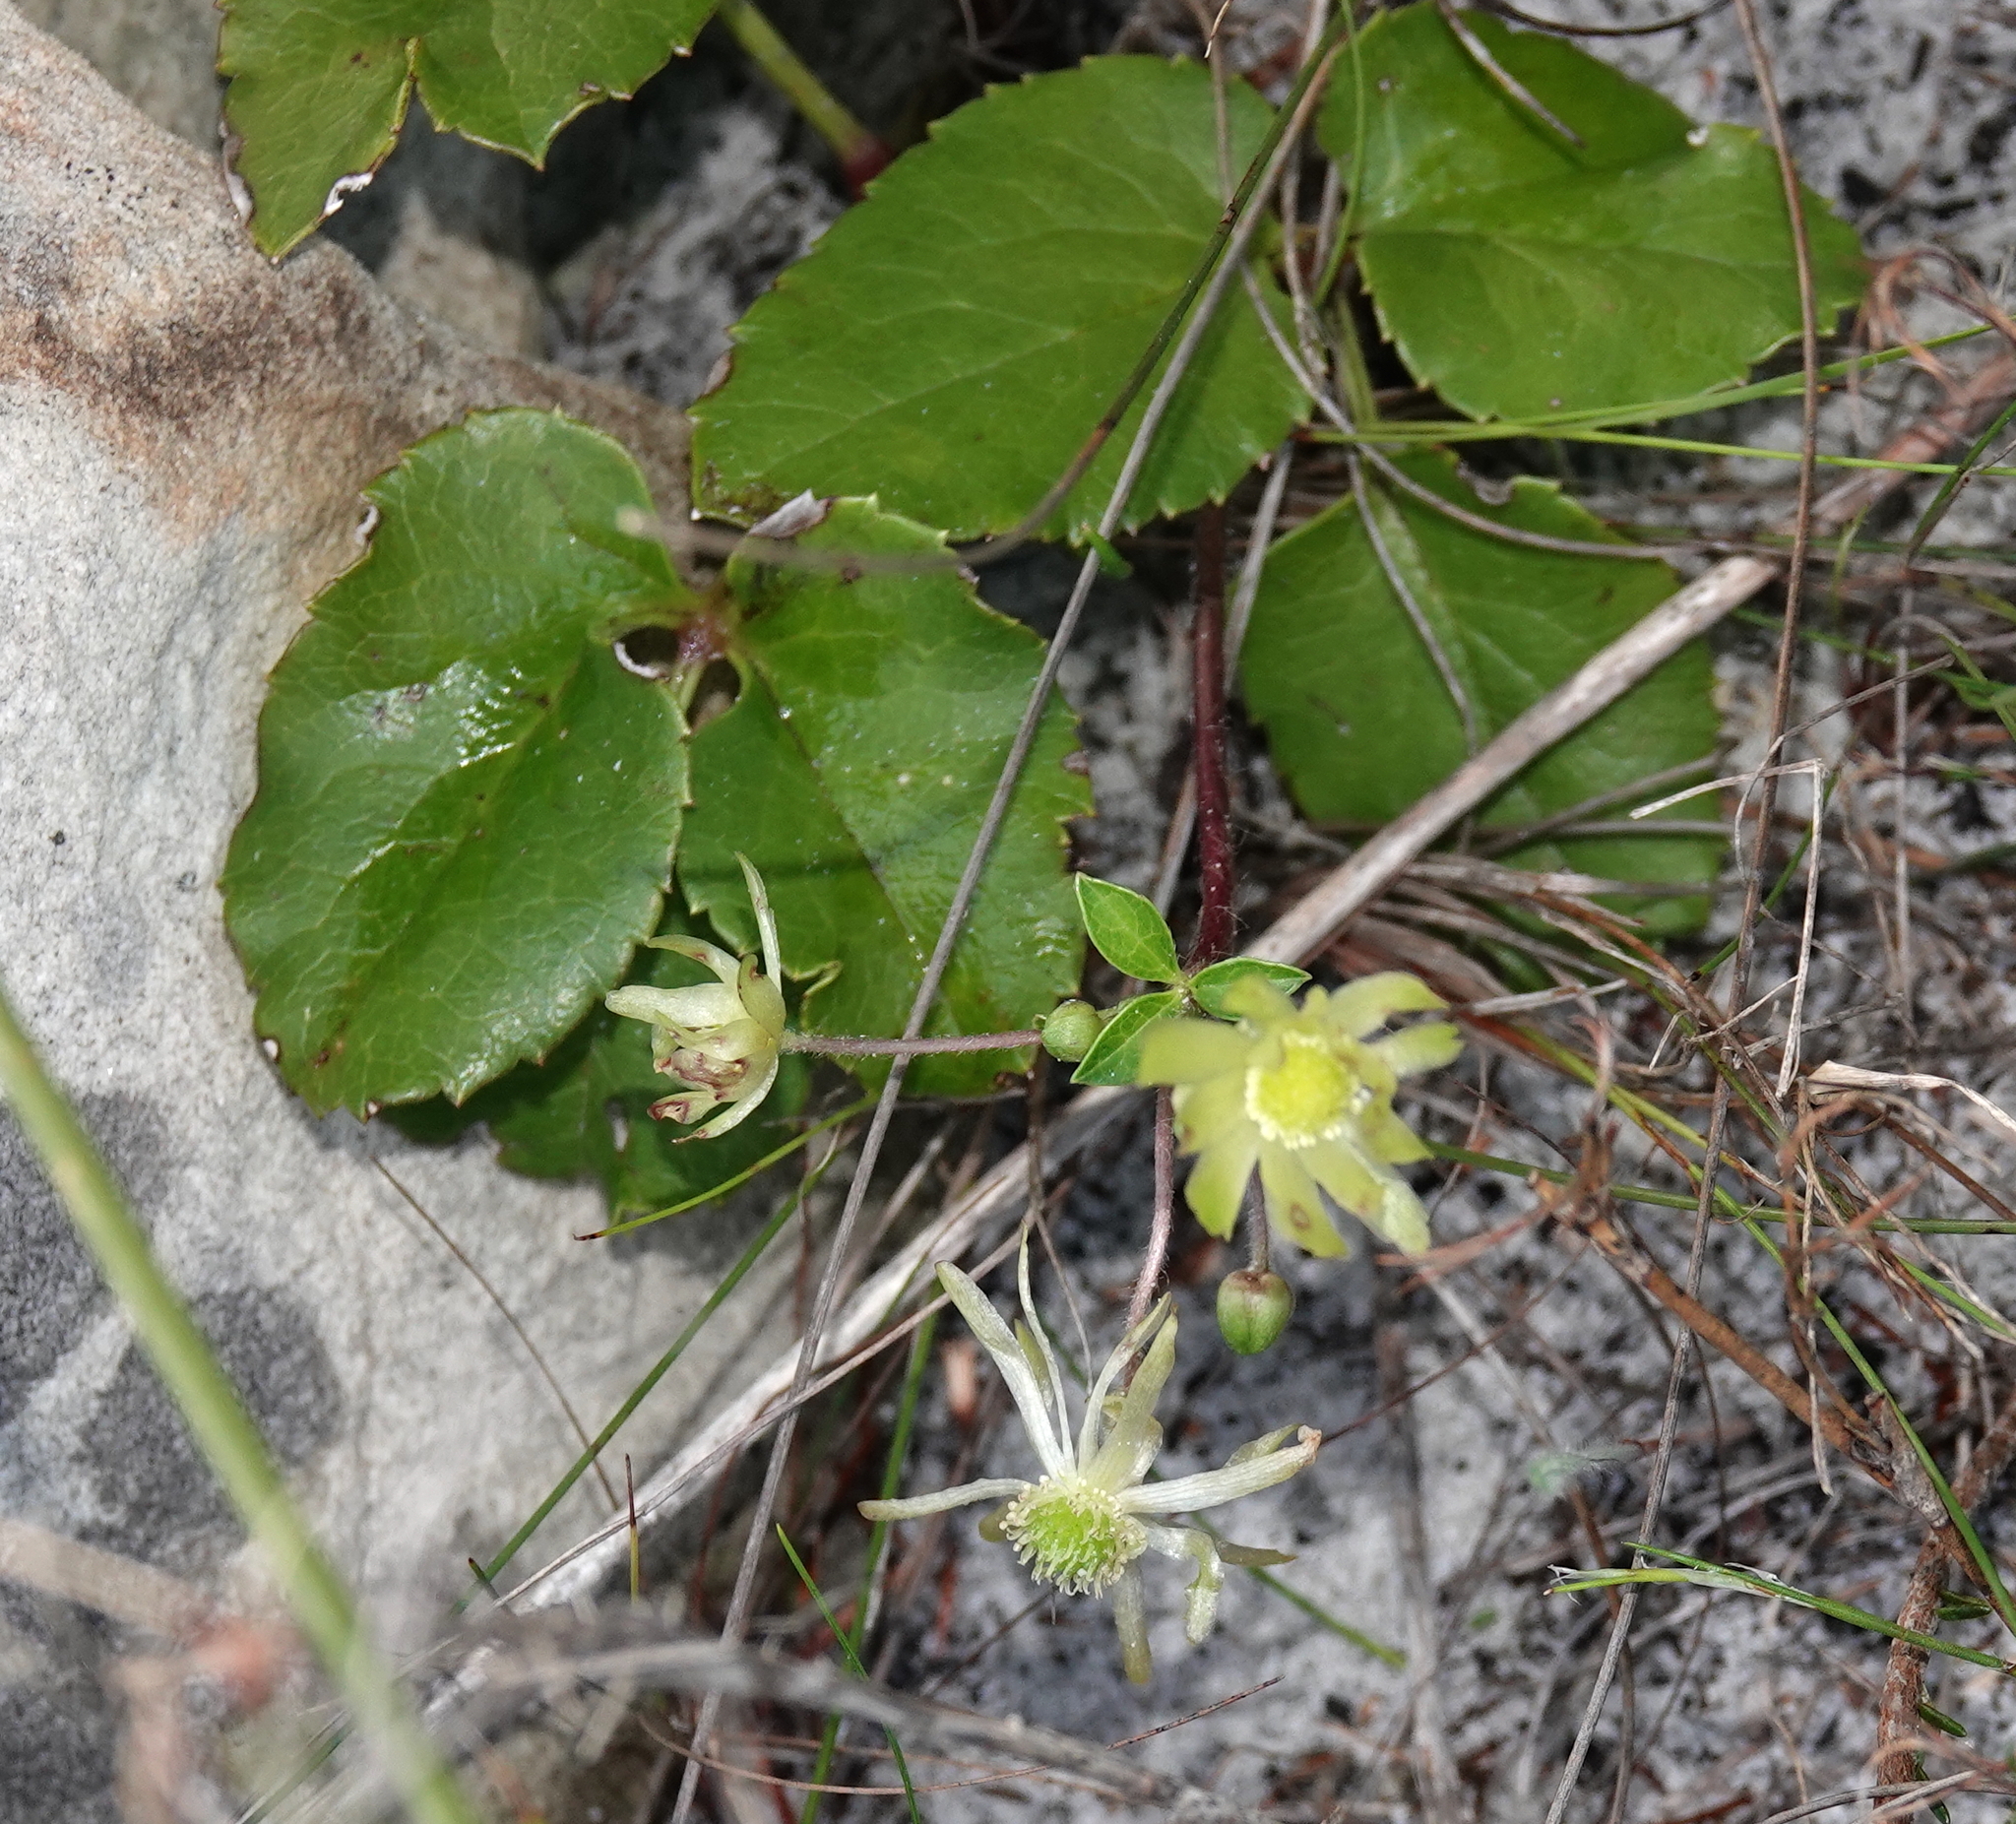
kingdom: Plantae
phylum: Tracheophyta
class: Magnoliopsida
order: Ranunculales
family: Ranunculaceae
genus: Knowltonia
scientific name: Knowltonia vesicatoria
